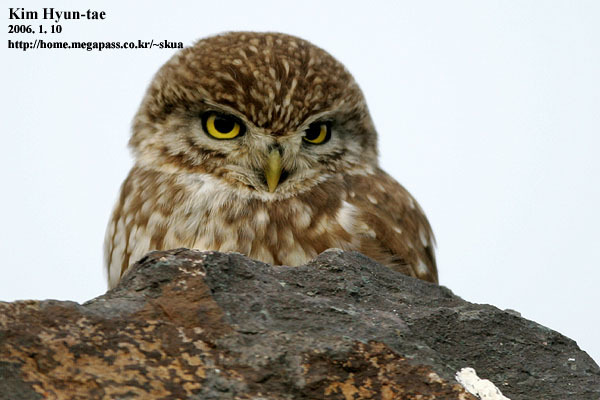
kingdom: Animalia
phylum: Chordata
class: Aves
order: Strigiformes
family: Strigidae
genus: Athene
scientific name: Athene noctua
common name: Little owl
